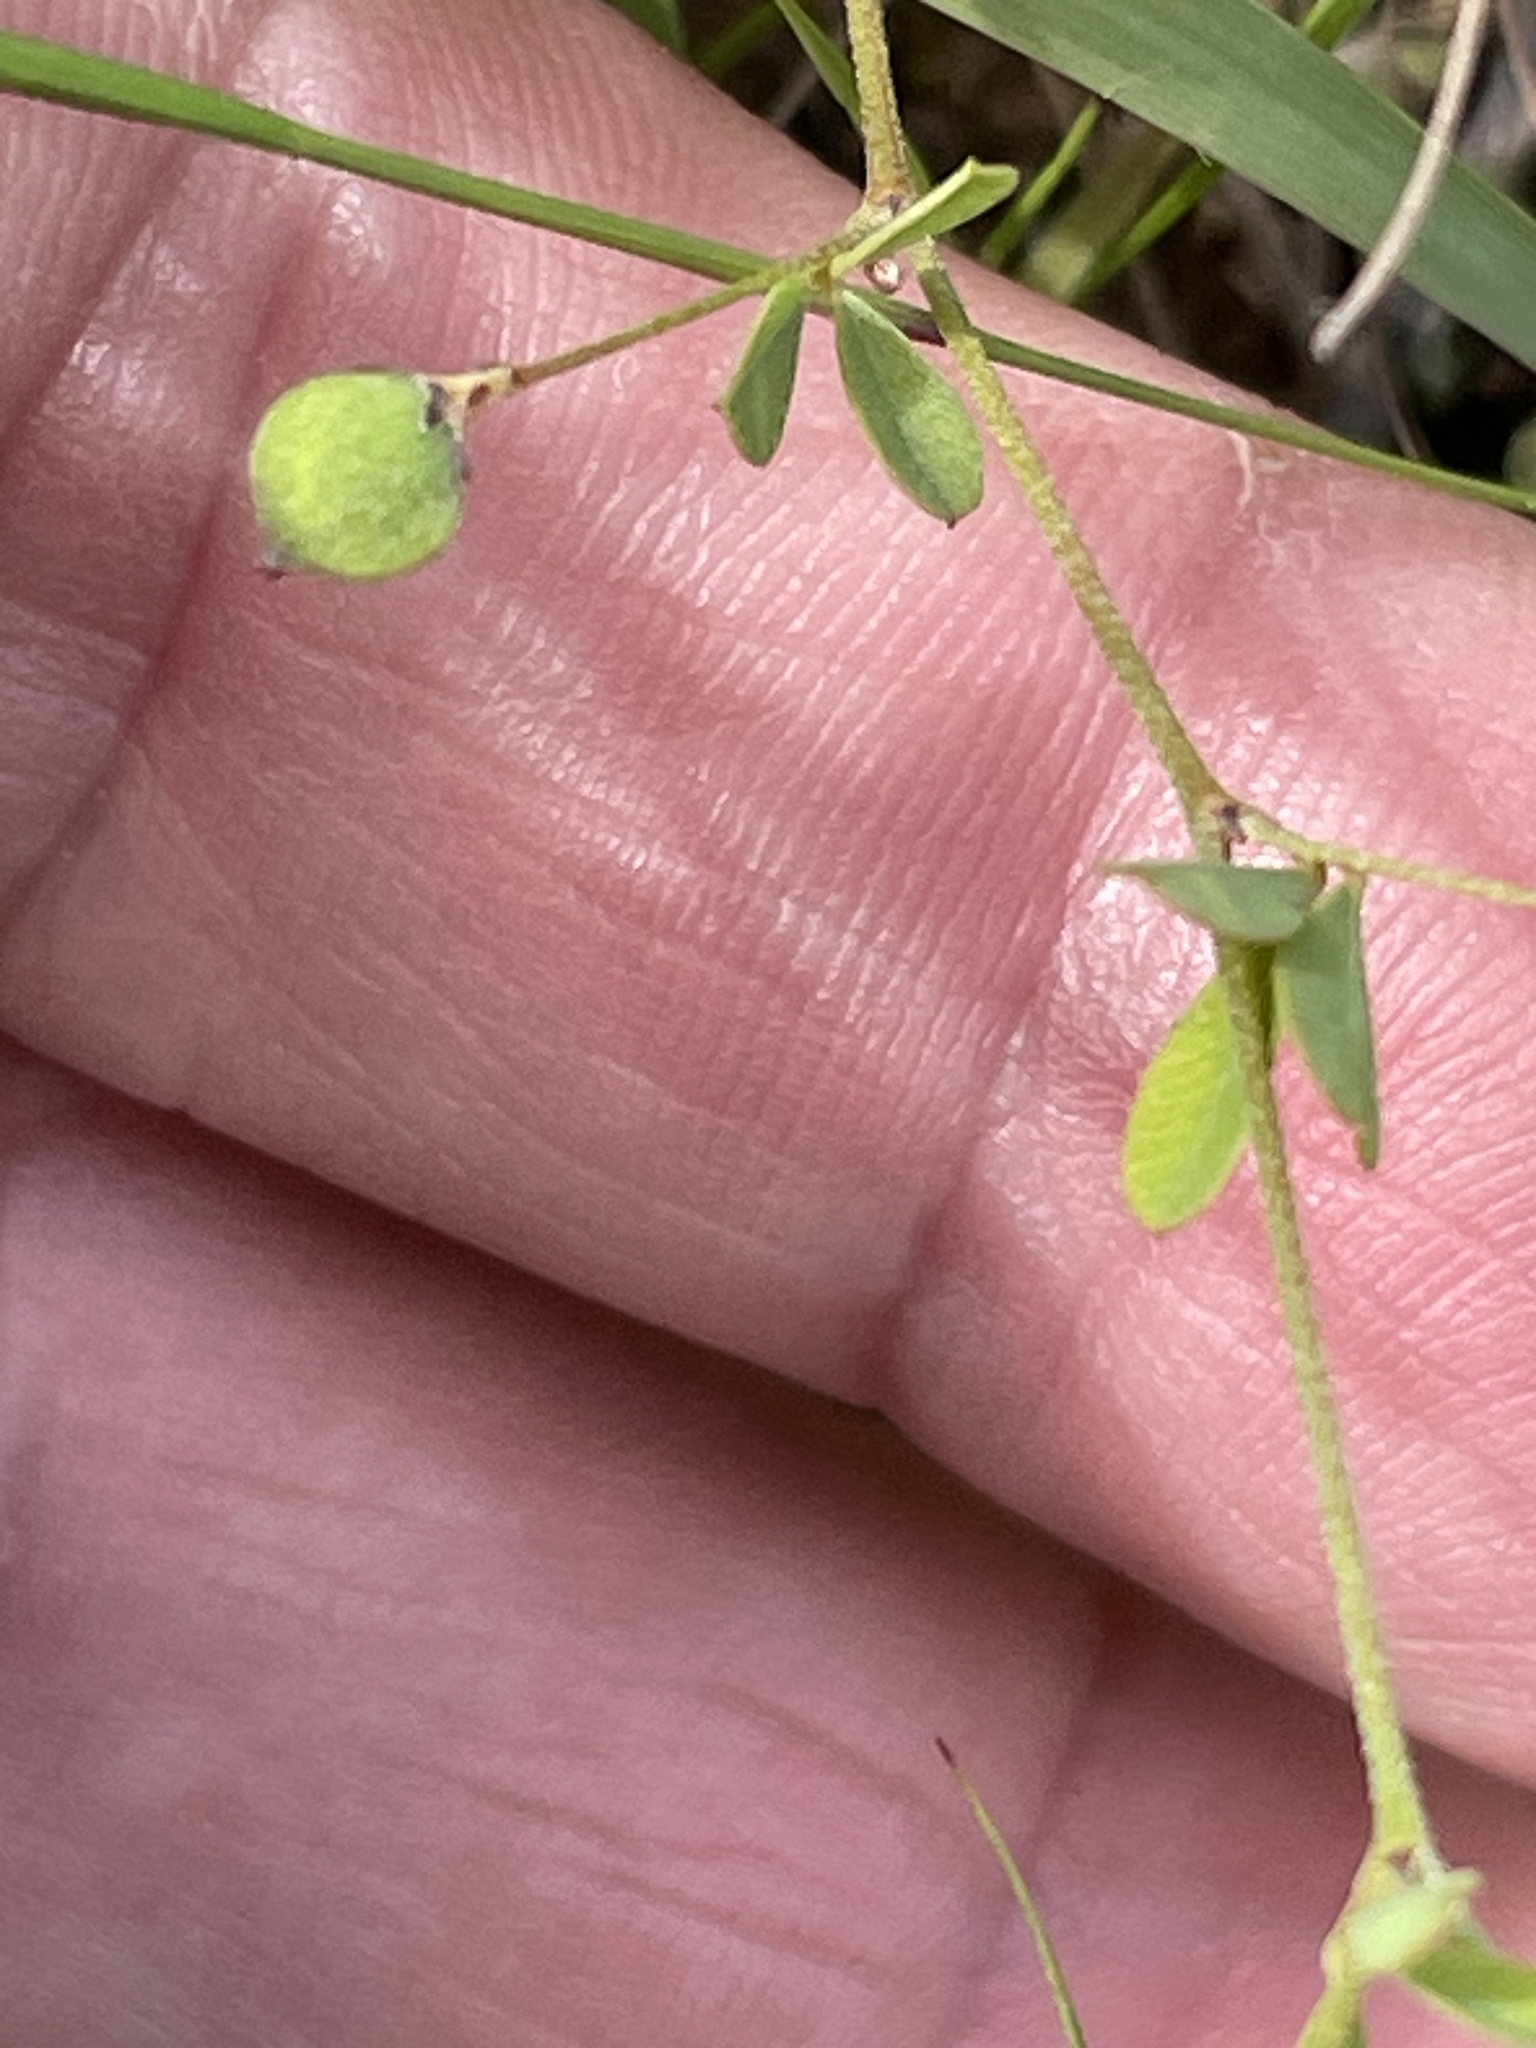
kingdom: Plantae
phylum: Tracheophyta
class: Magnoliopsida
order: Fabales
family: Fabaceae
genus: Lespedeza
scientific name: Lespedeza repens
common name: Creeping bush-clover
